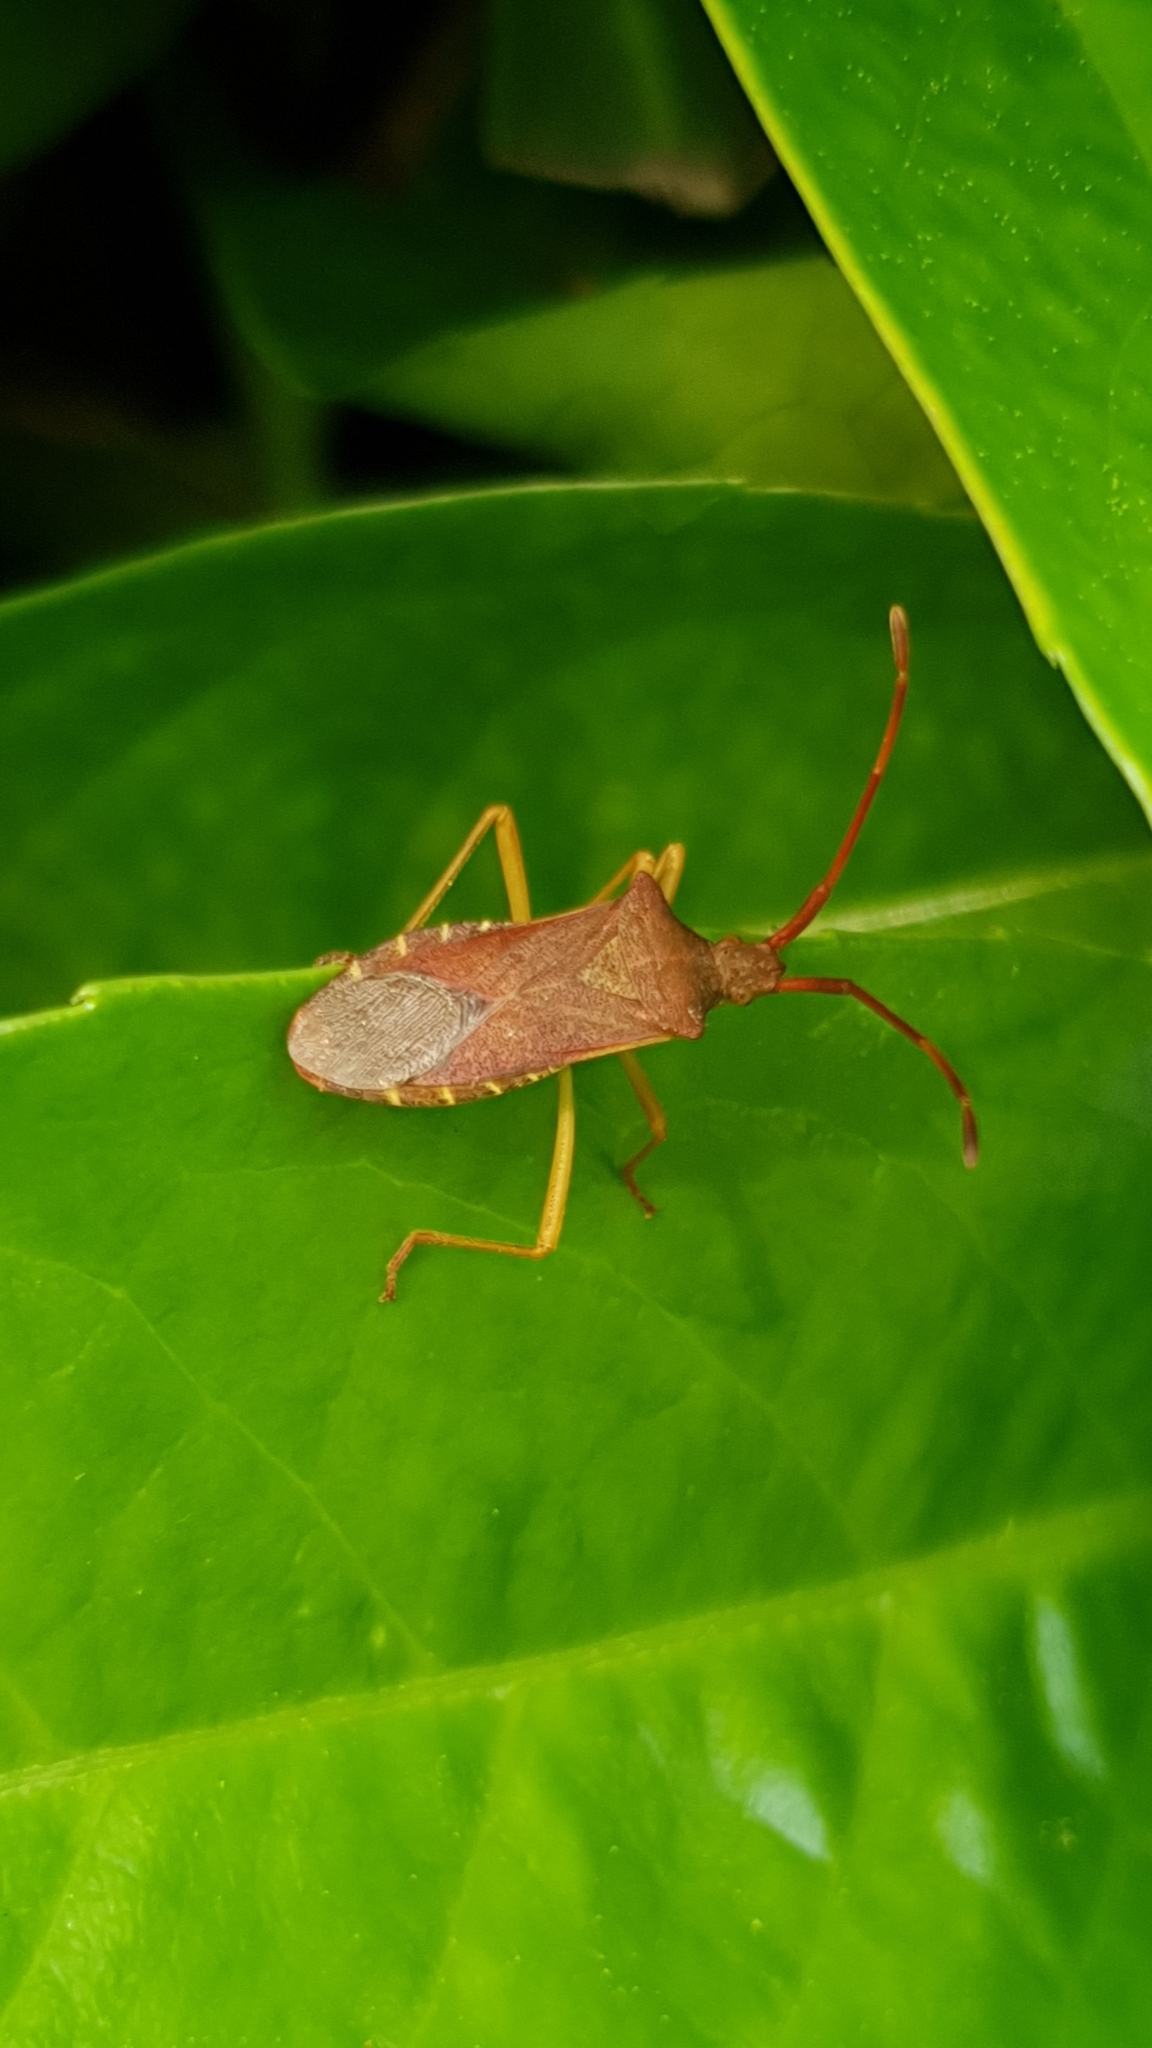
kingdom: Animalia
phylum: Arthropoda
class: Insecta
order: Hemiptera
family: Coreidae
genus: Gonocerus
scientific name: Gonocerus acuteangulatus
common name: Box bug
